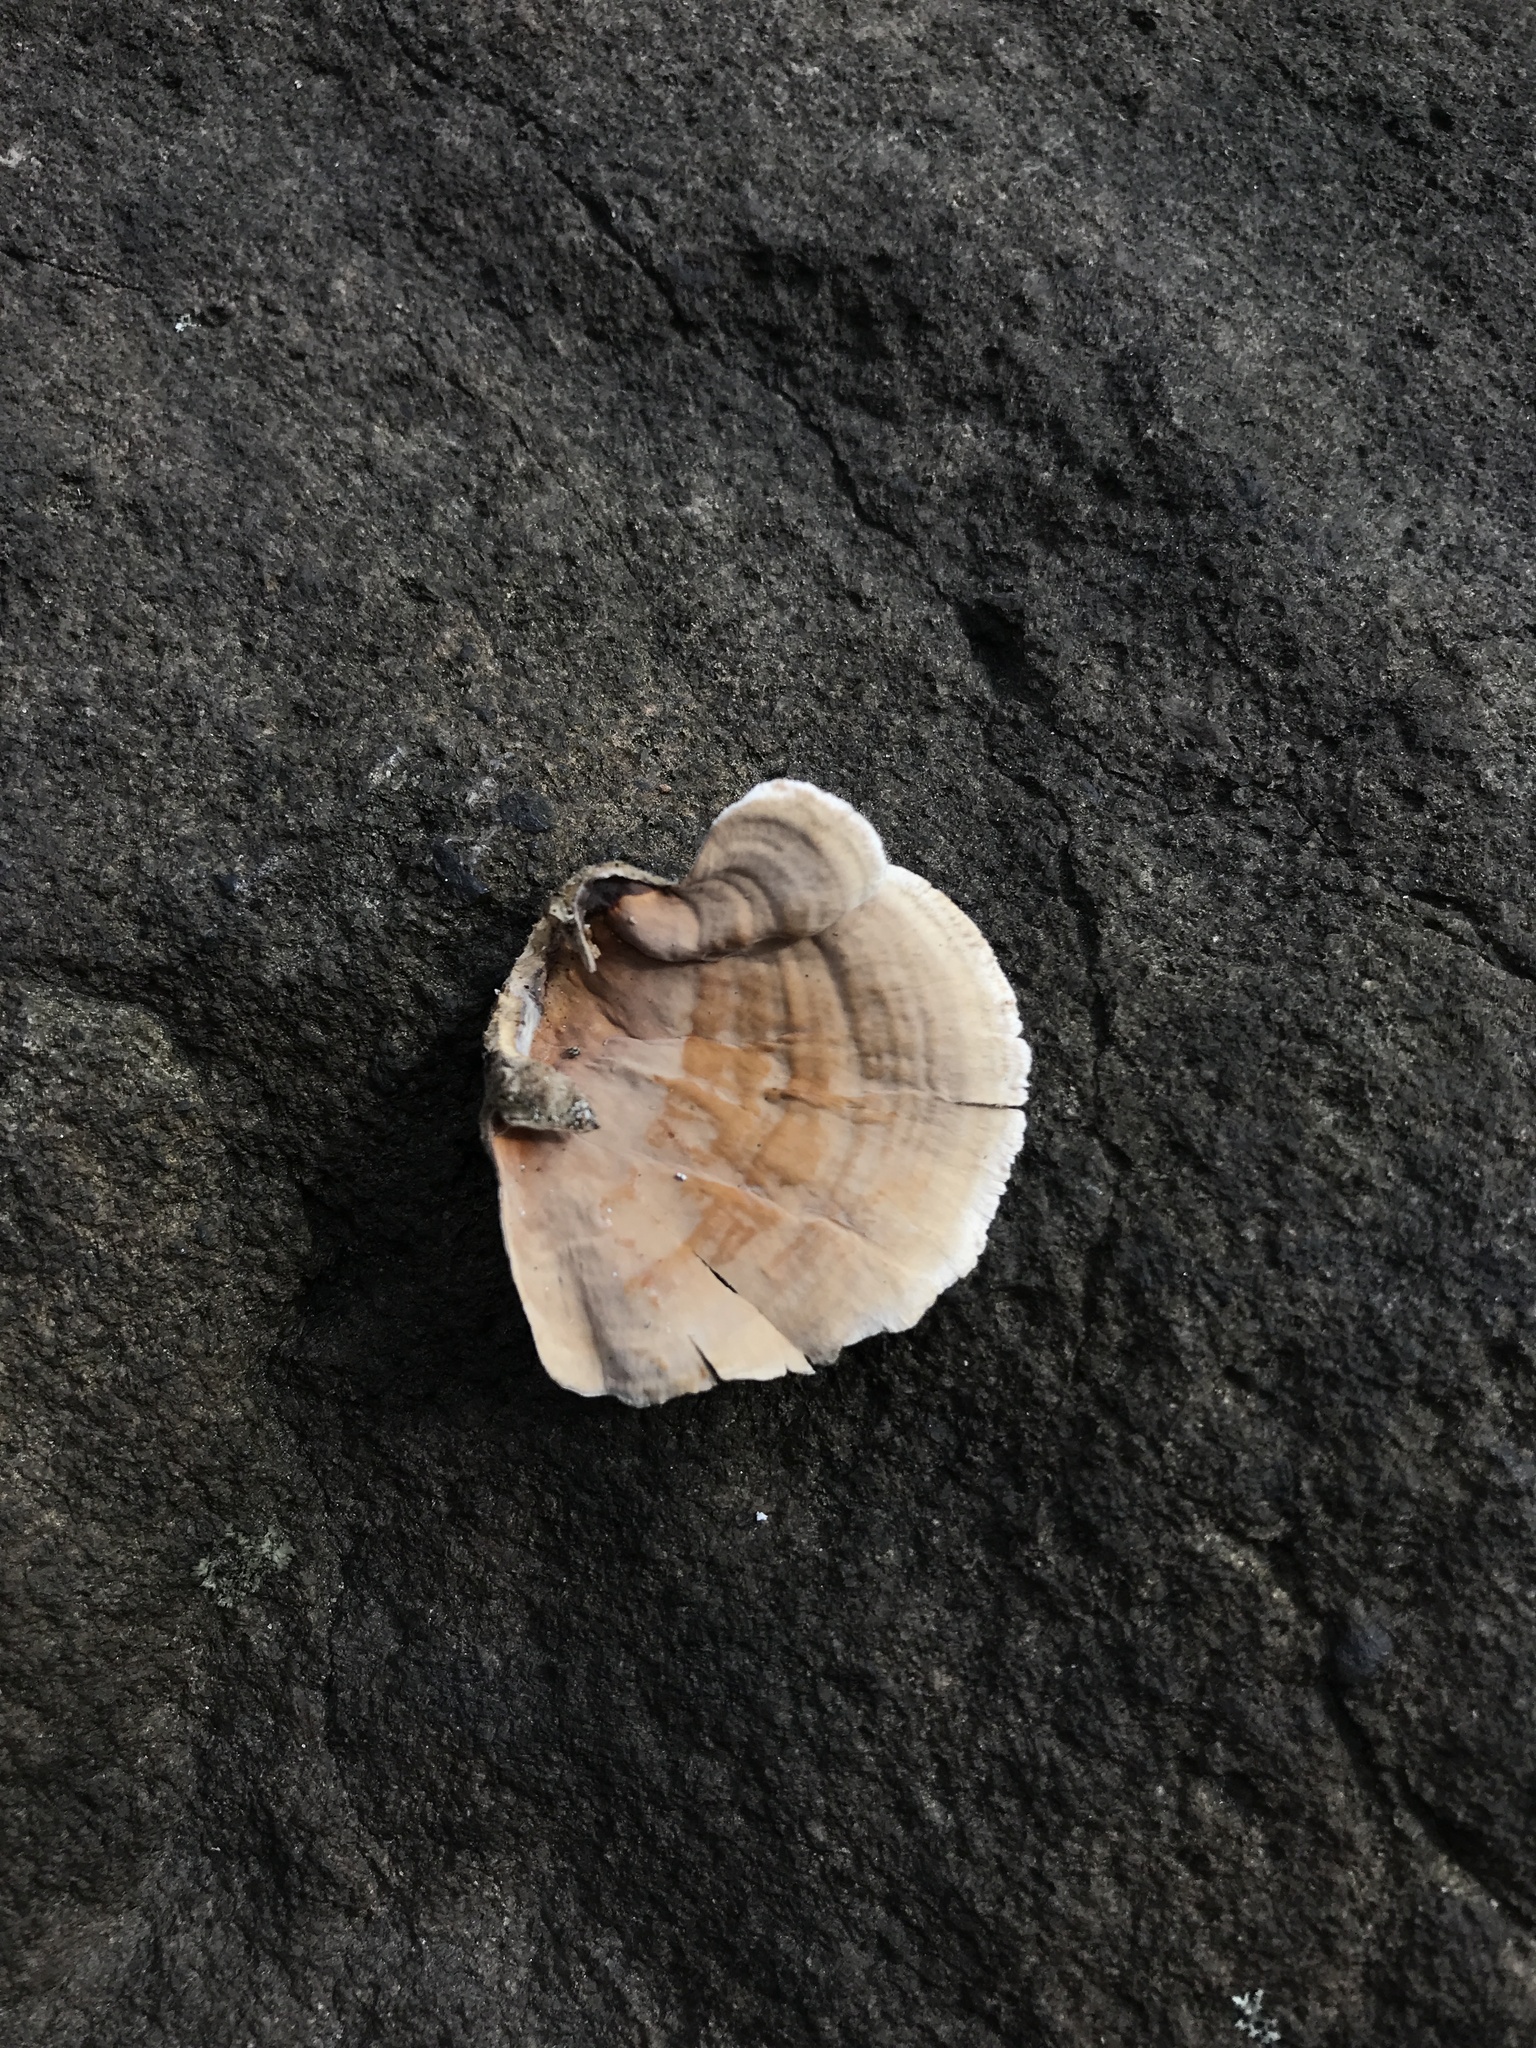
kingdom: Fungi
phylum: Basidiomycota
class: Agaricomycetes
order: Russulales
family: Stereaceae
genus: Stereum
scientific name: Stereum ostrea
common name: False turkeytail
